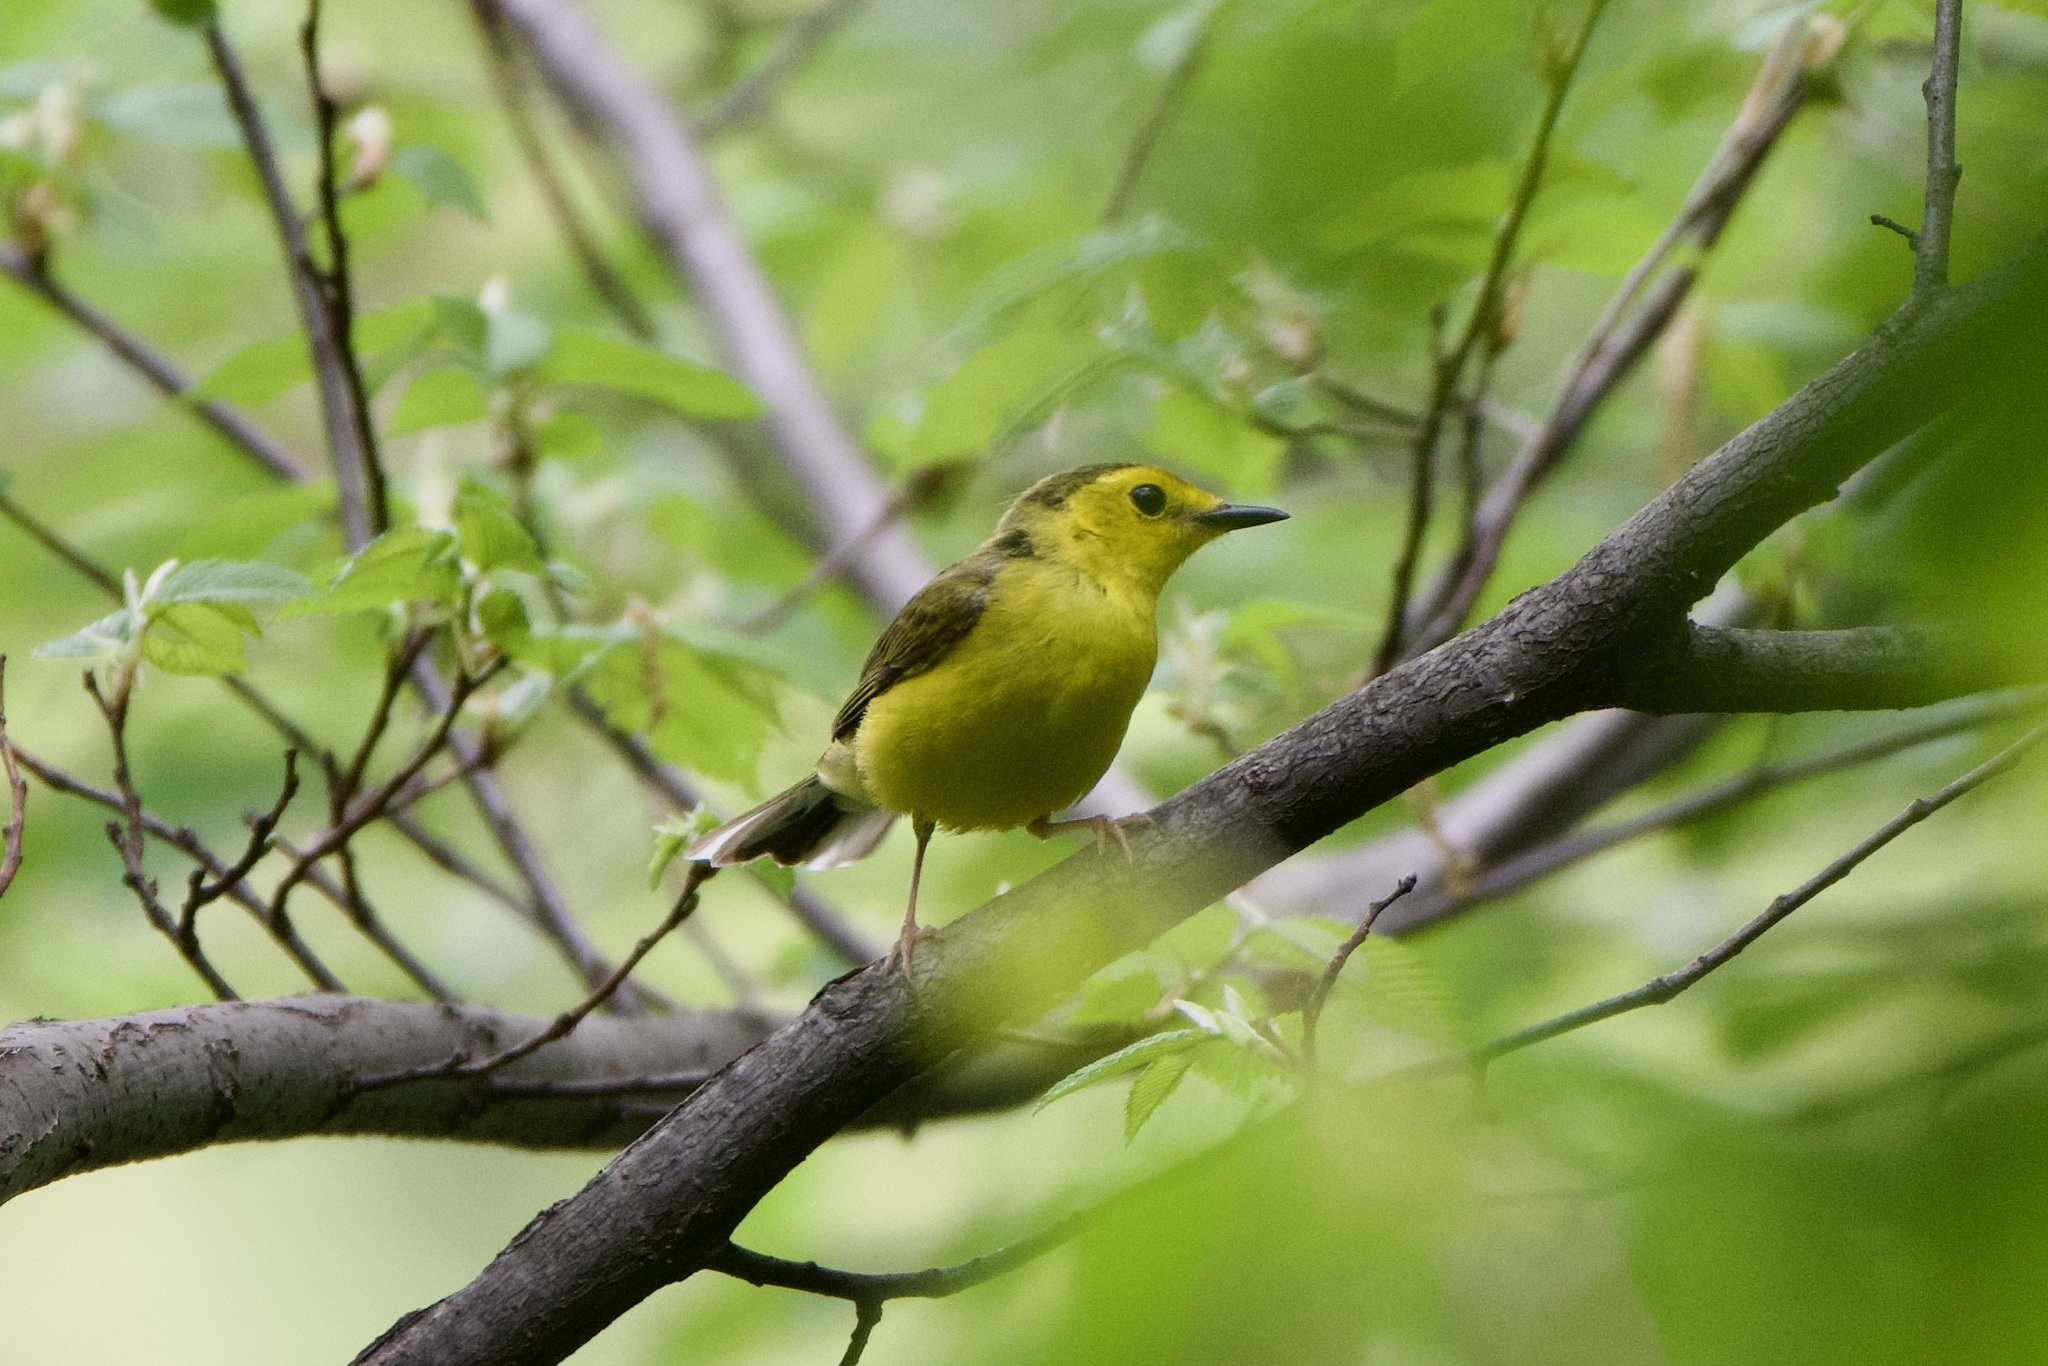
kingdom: Animalia
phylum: Chordata
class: Aves
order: Passeriformes
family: Parulidae
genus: Setophaga
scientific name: Setophaga citrina
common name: Hooded warbler
